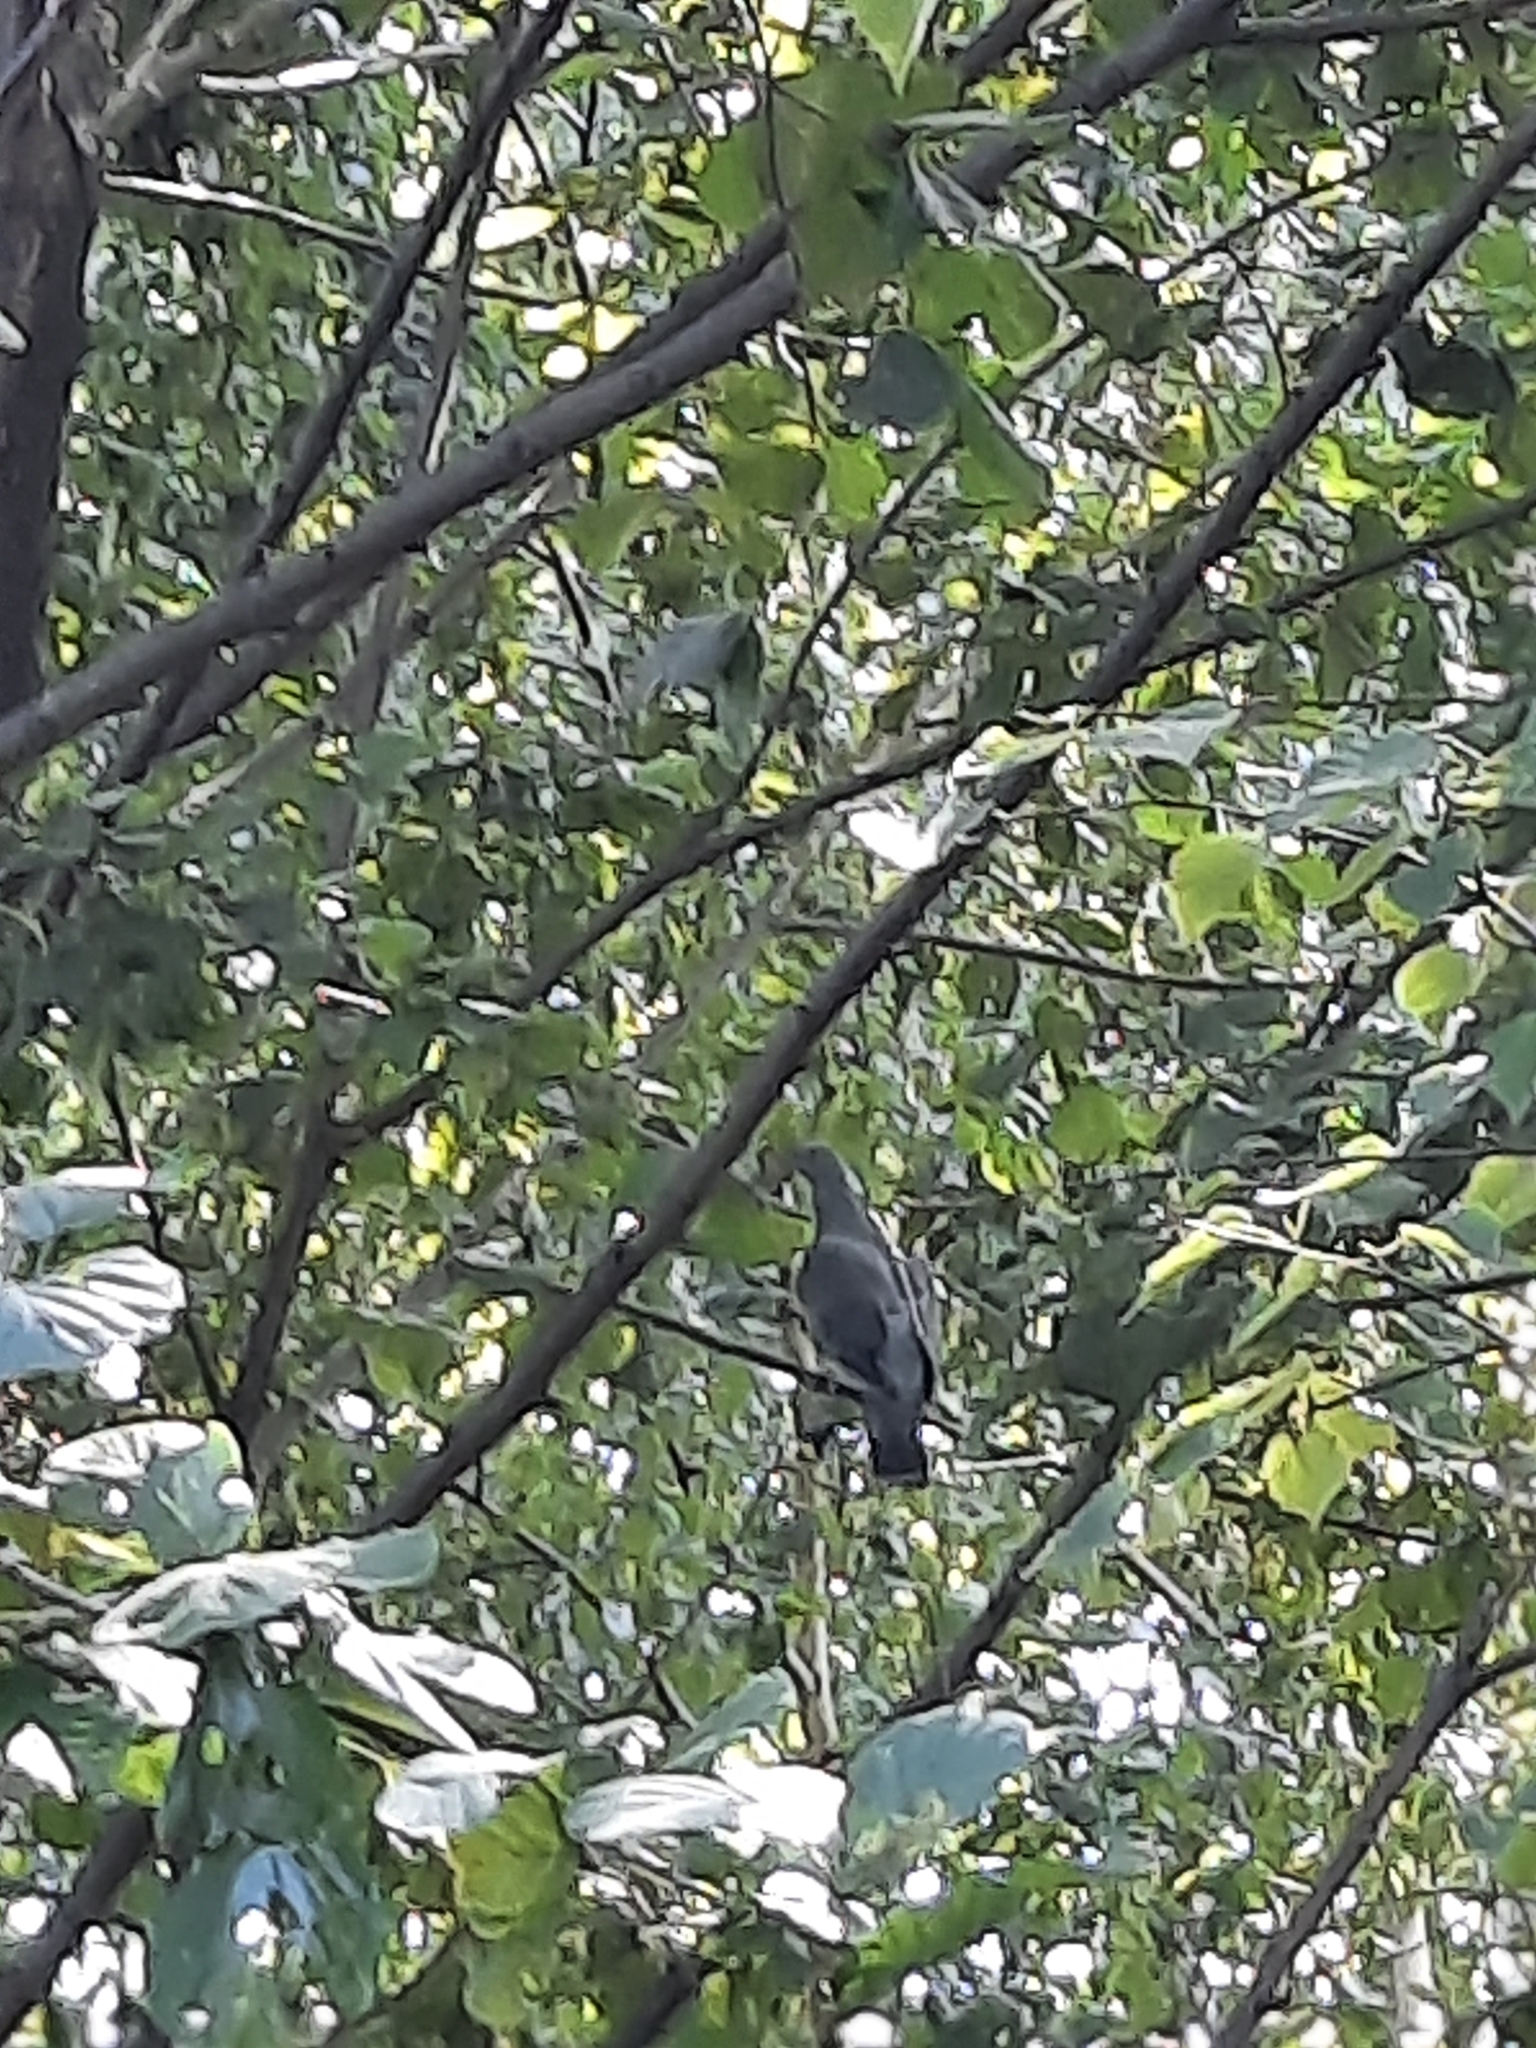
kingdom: Animalia
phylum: Chordata
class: Aves
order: Columbiformes
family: Columbidae
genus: Columba
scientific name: Columba palumbus
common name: Common wood pigeon
